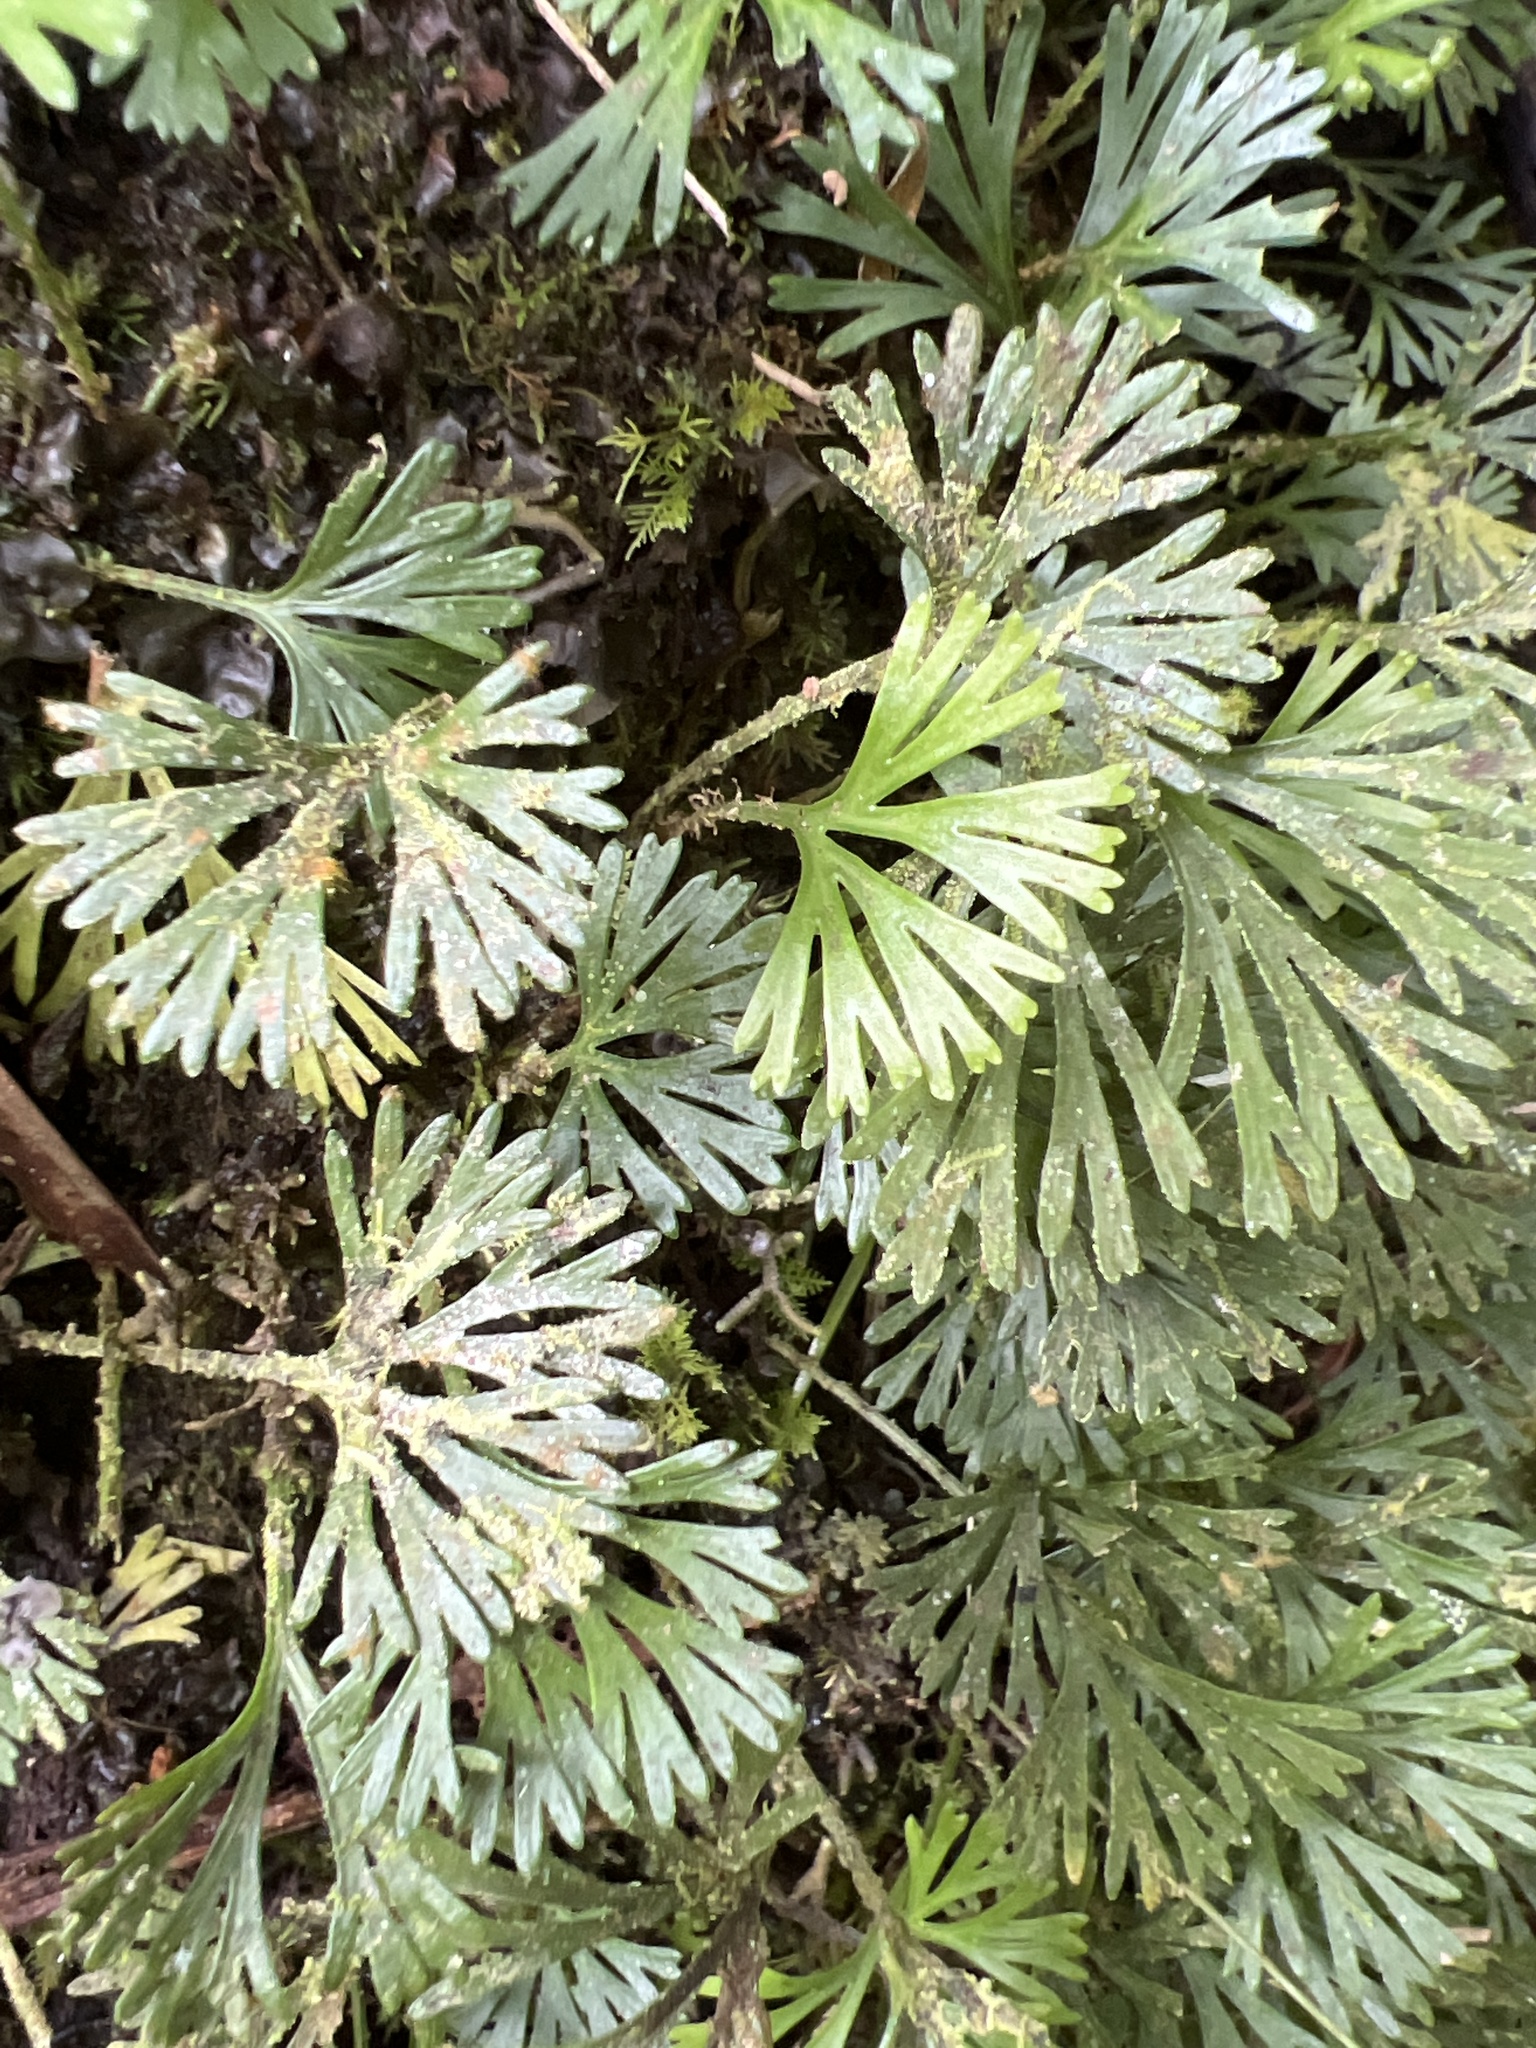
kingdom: Plantae
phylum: Tracheophyta
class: Polypodiopsida
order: Polypodiales
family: Dryopteridaceae
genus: Elaphoglossum
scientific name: Elaphoglossum peltatum
